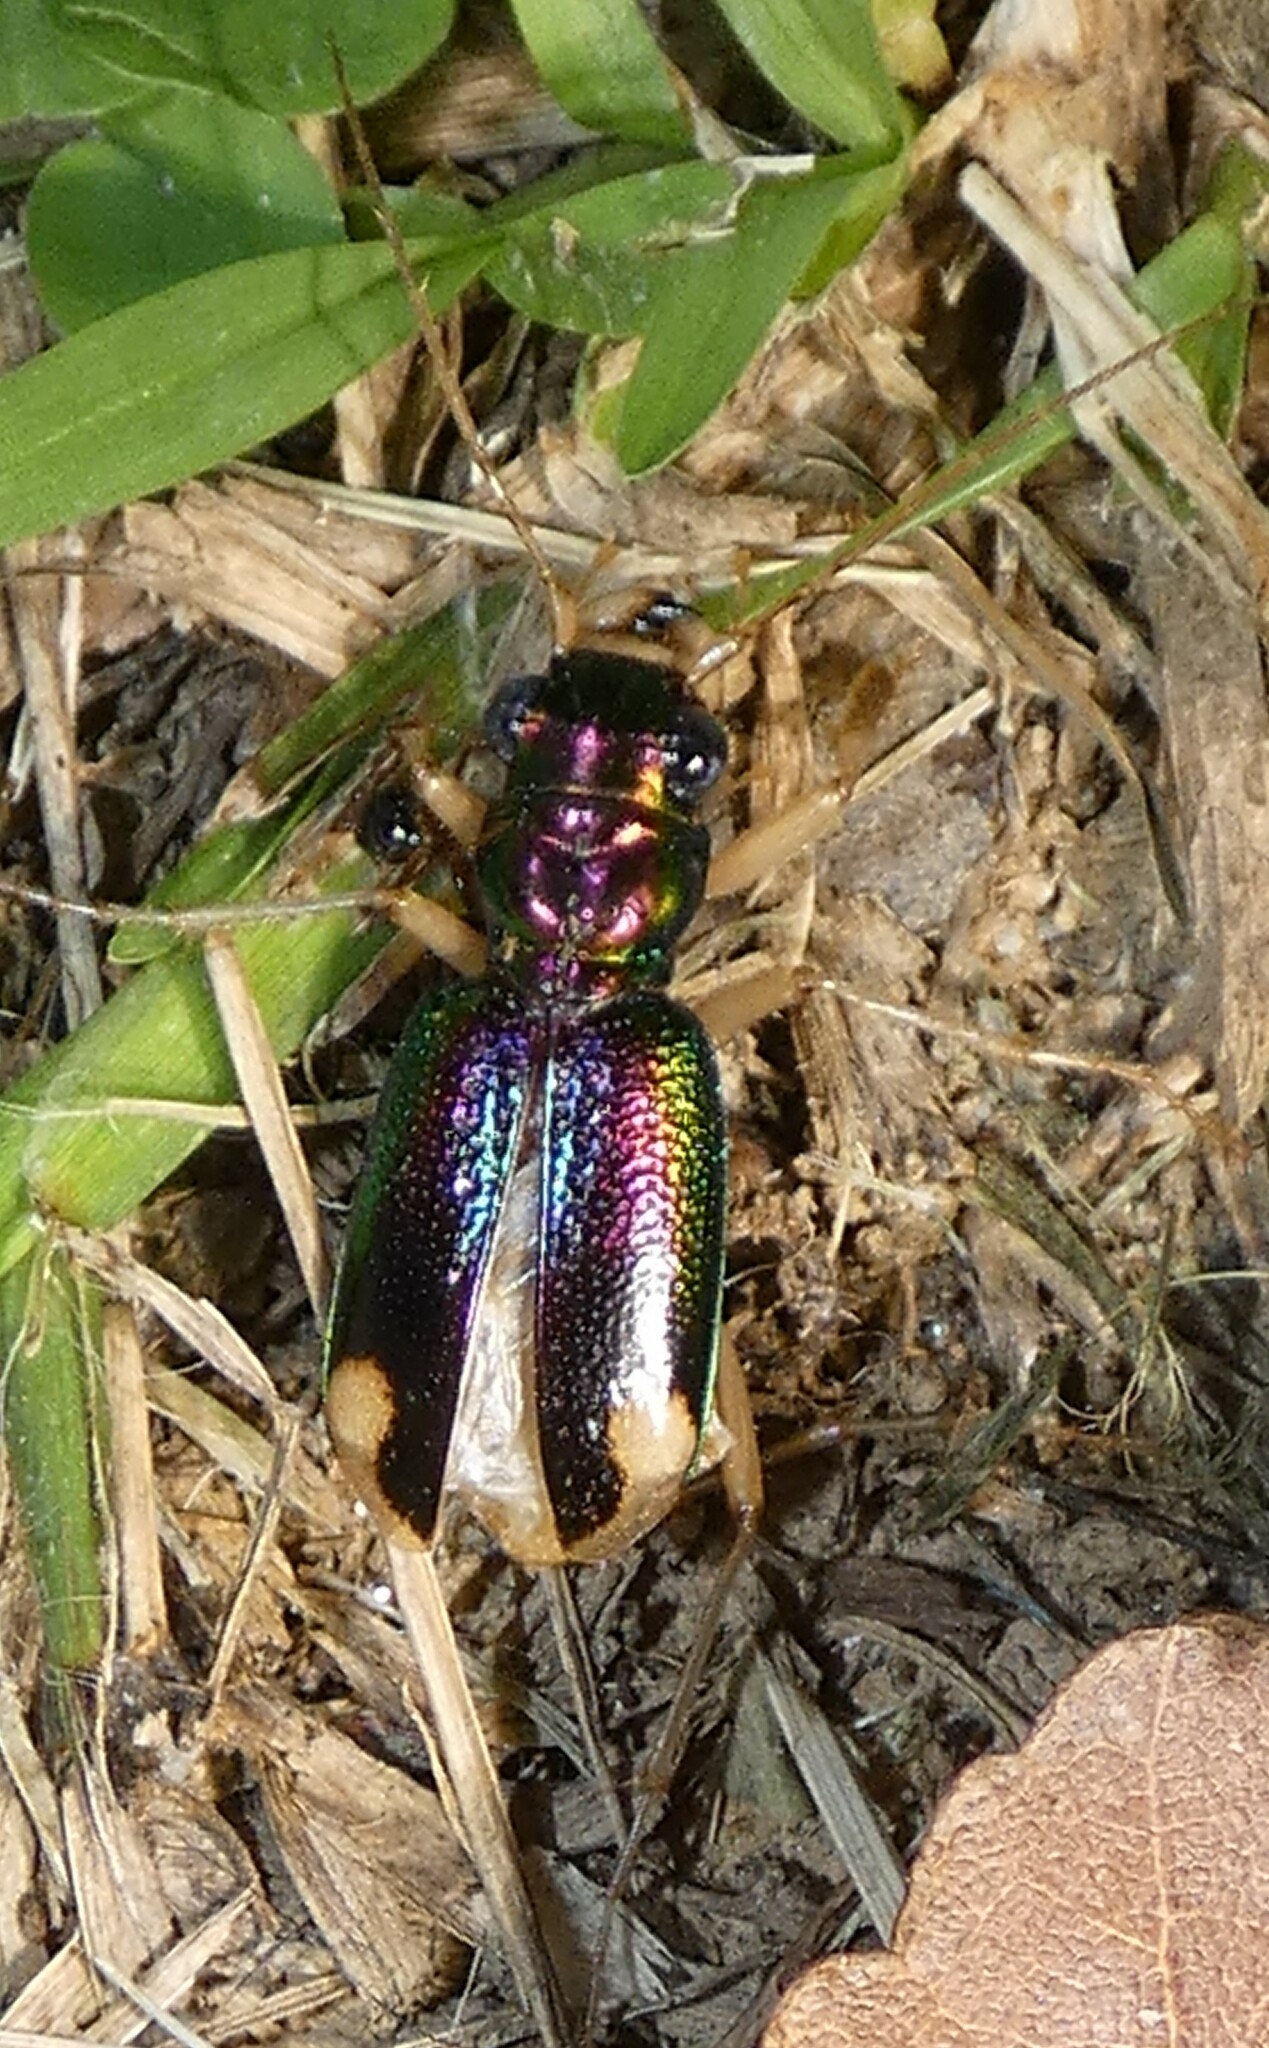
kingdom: Animalia
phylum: Arthropoda
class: Insecta
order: Coleoptera
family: Carabidae
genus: Tetracha
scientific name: Tetracha carolina
